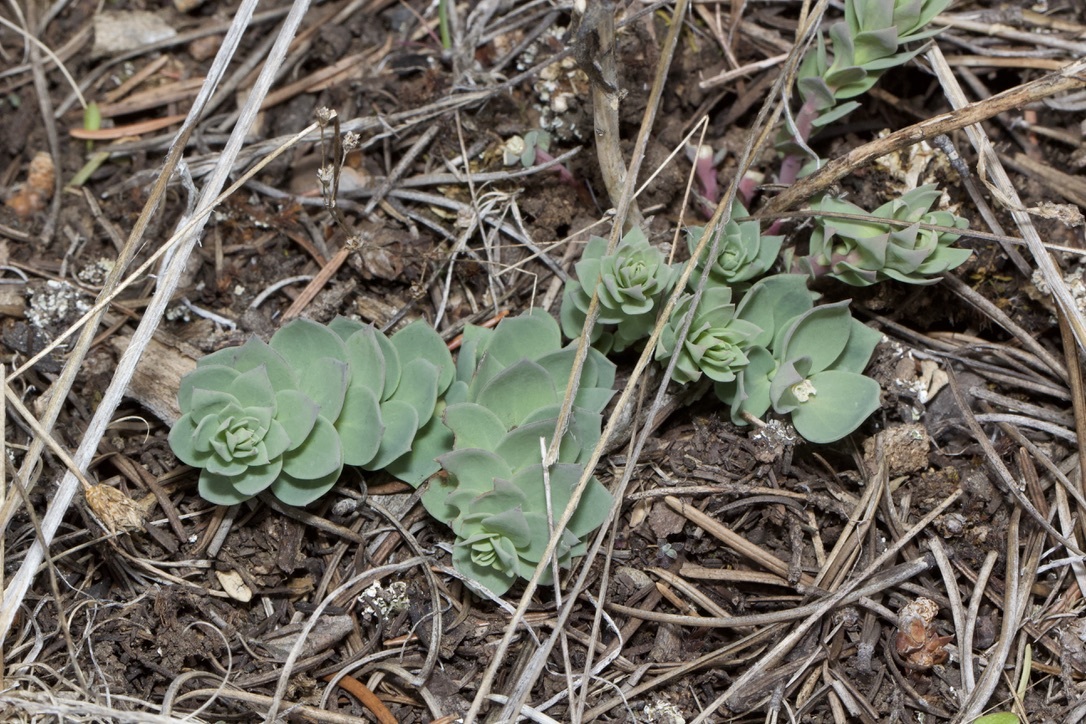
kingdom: Plantae
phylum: Tracheophyta
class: Magnoliopsida
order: Lamiales
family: Plantaginaceae
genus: Linaria
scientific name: Linaria dalmatica
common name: Dalmatian toadflax
